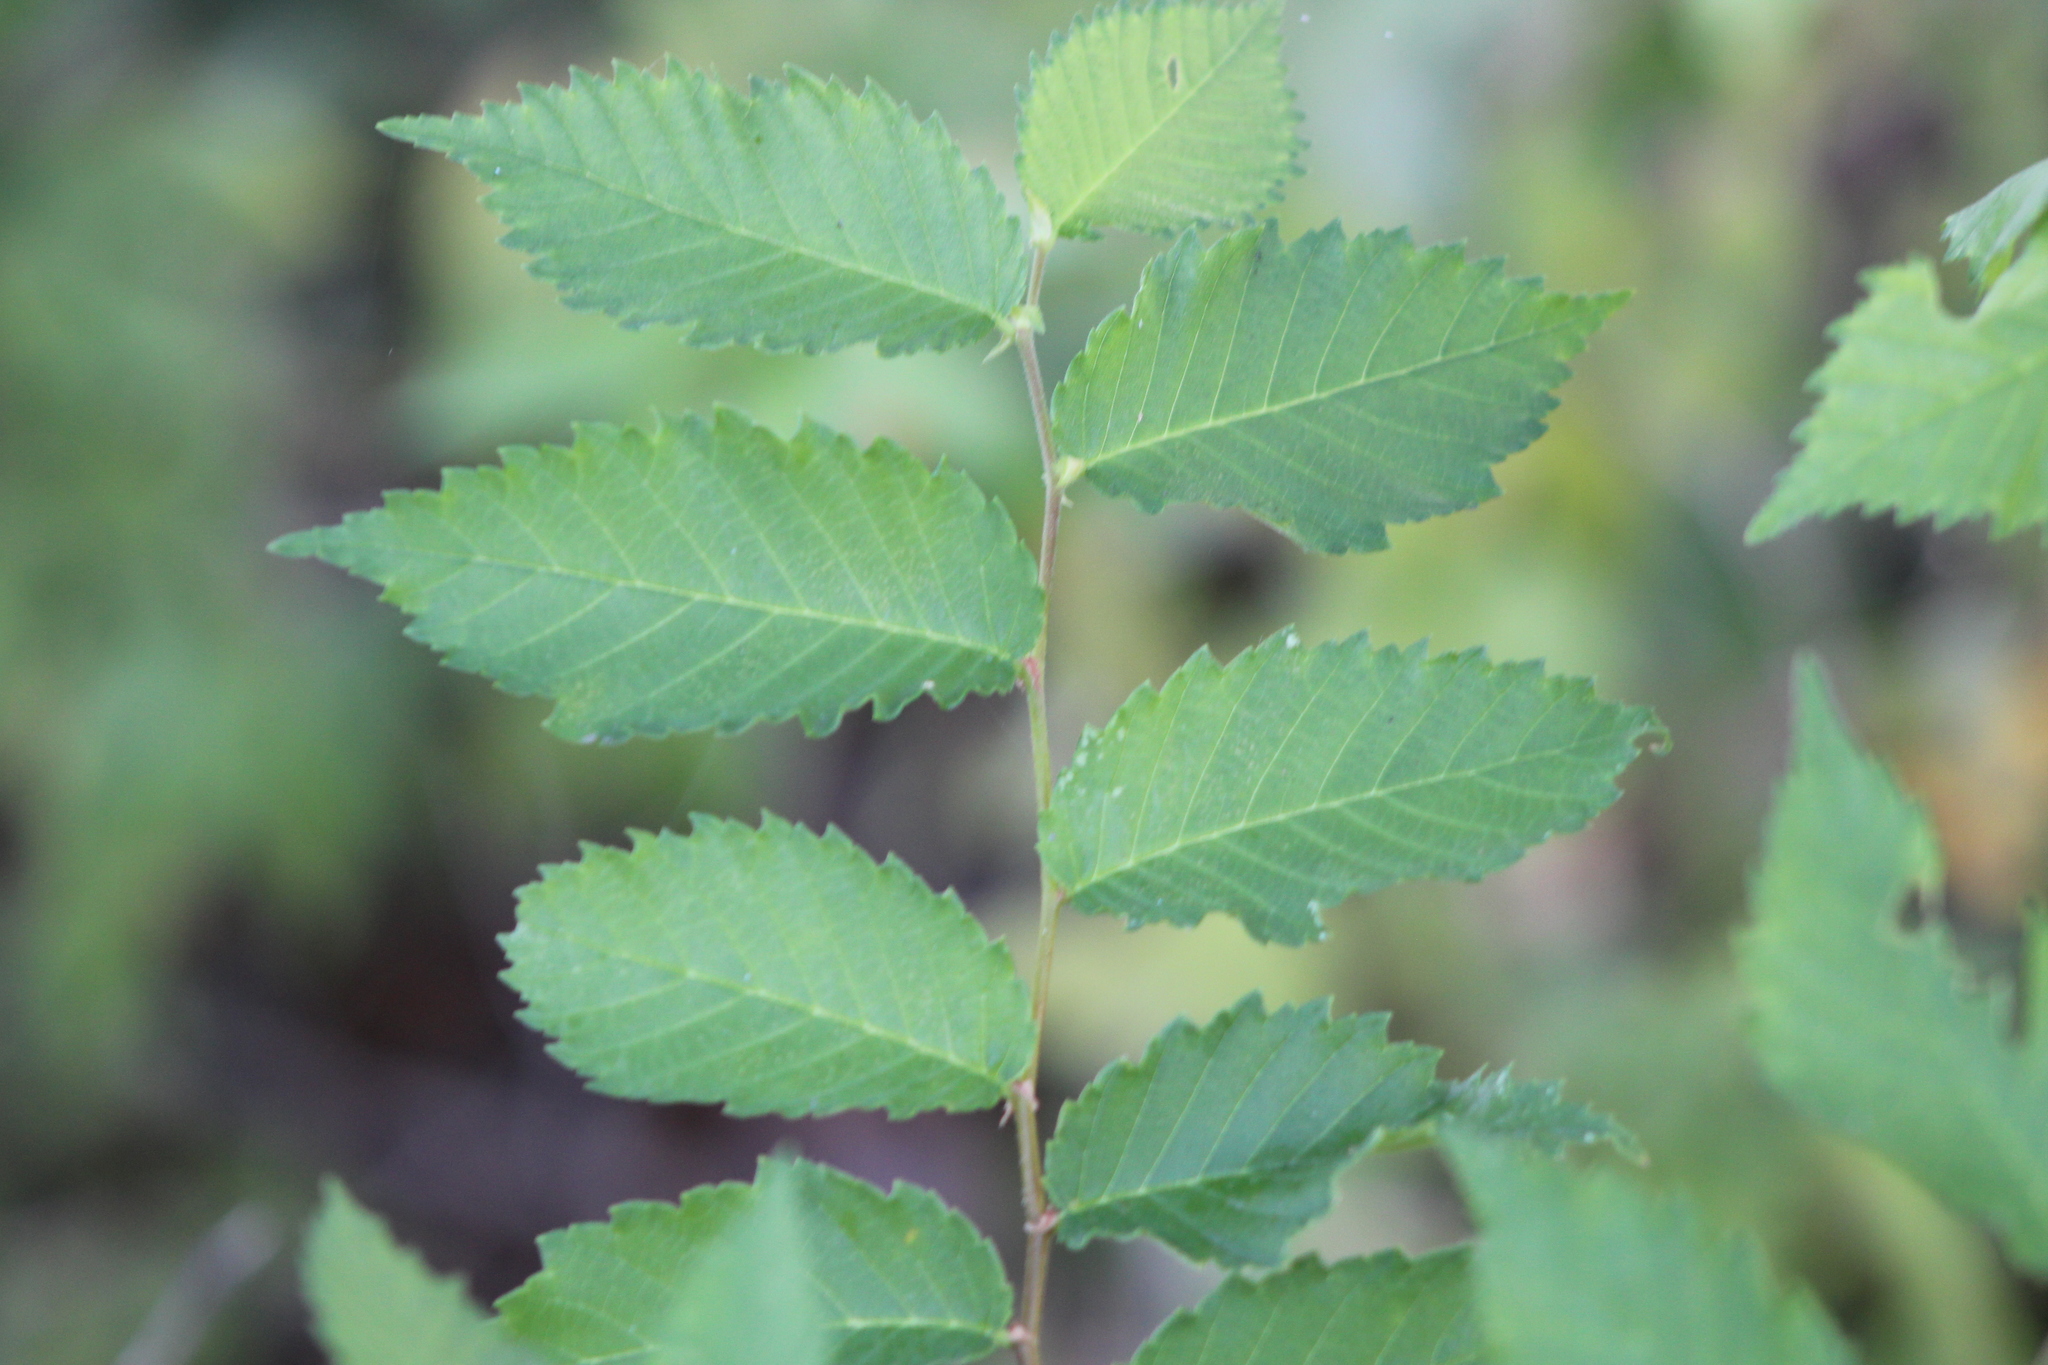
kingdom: Plantae
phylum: Tracheophyta
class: Magnoliopsida
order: Rosales
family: Ulmaceae
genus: Ulmus
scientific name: Ulmus americana
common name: American elm
